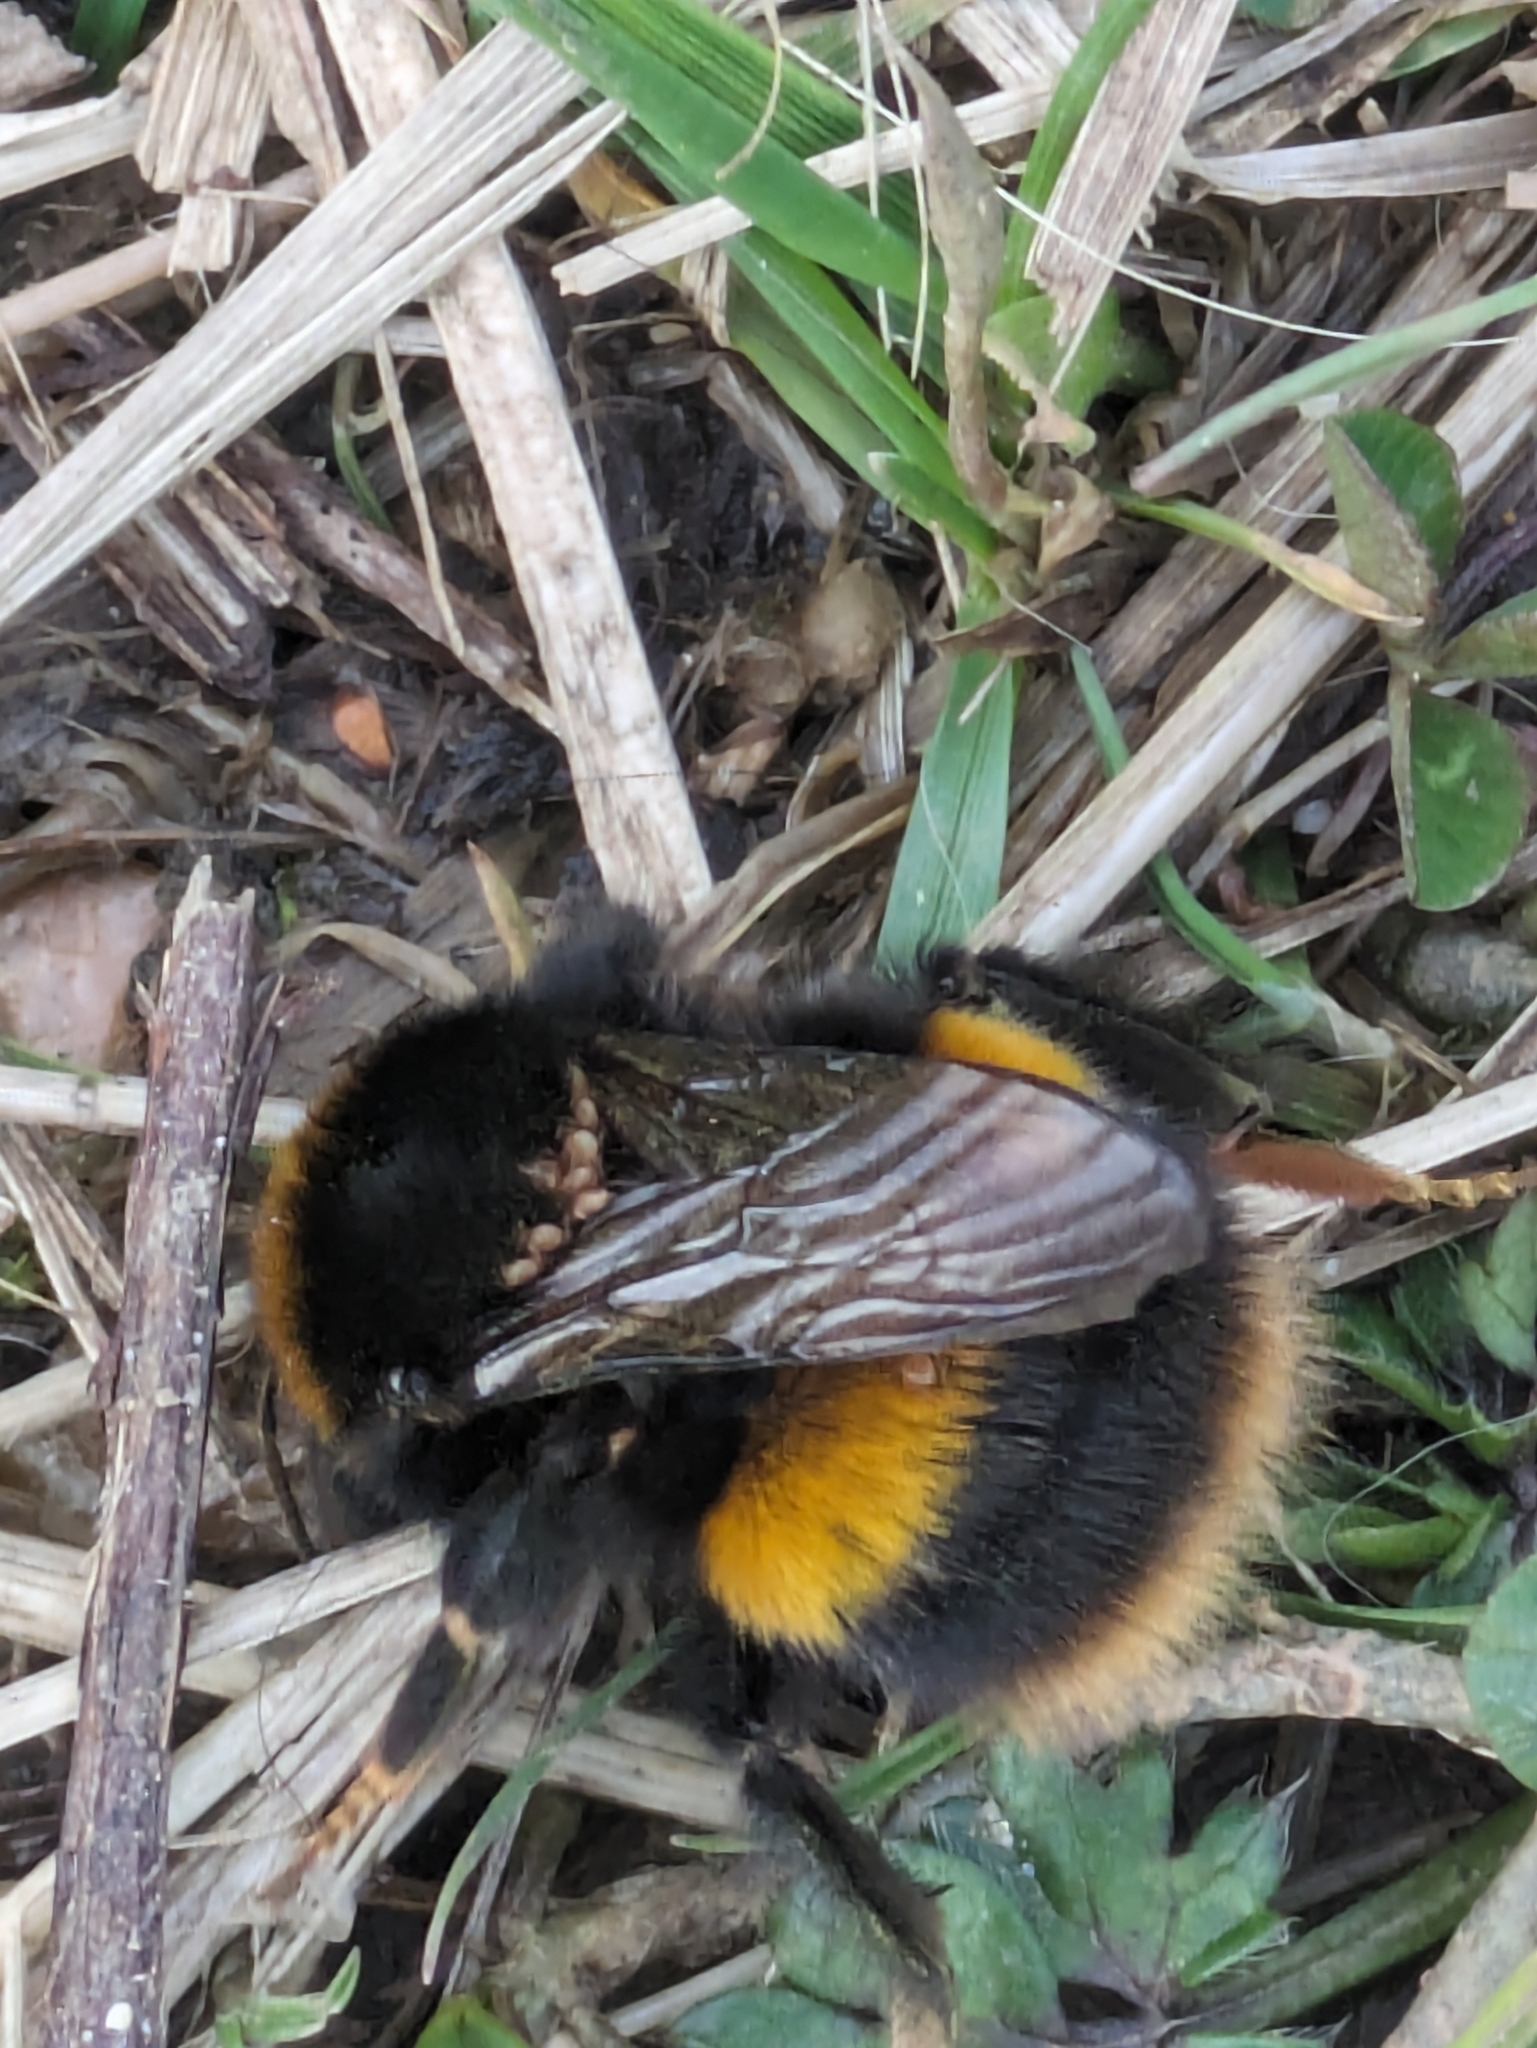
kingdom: Animalia
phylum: Arthropoda
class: Insecta
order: Hymenoptera
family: Apidae
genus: Bombus
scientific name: Bombus terrestris
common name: Buff-tailed bumblebee
